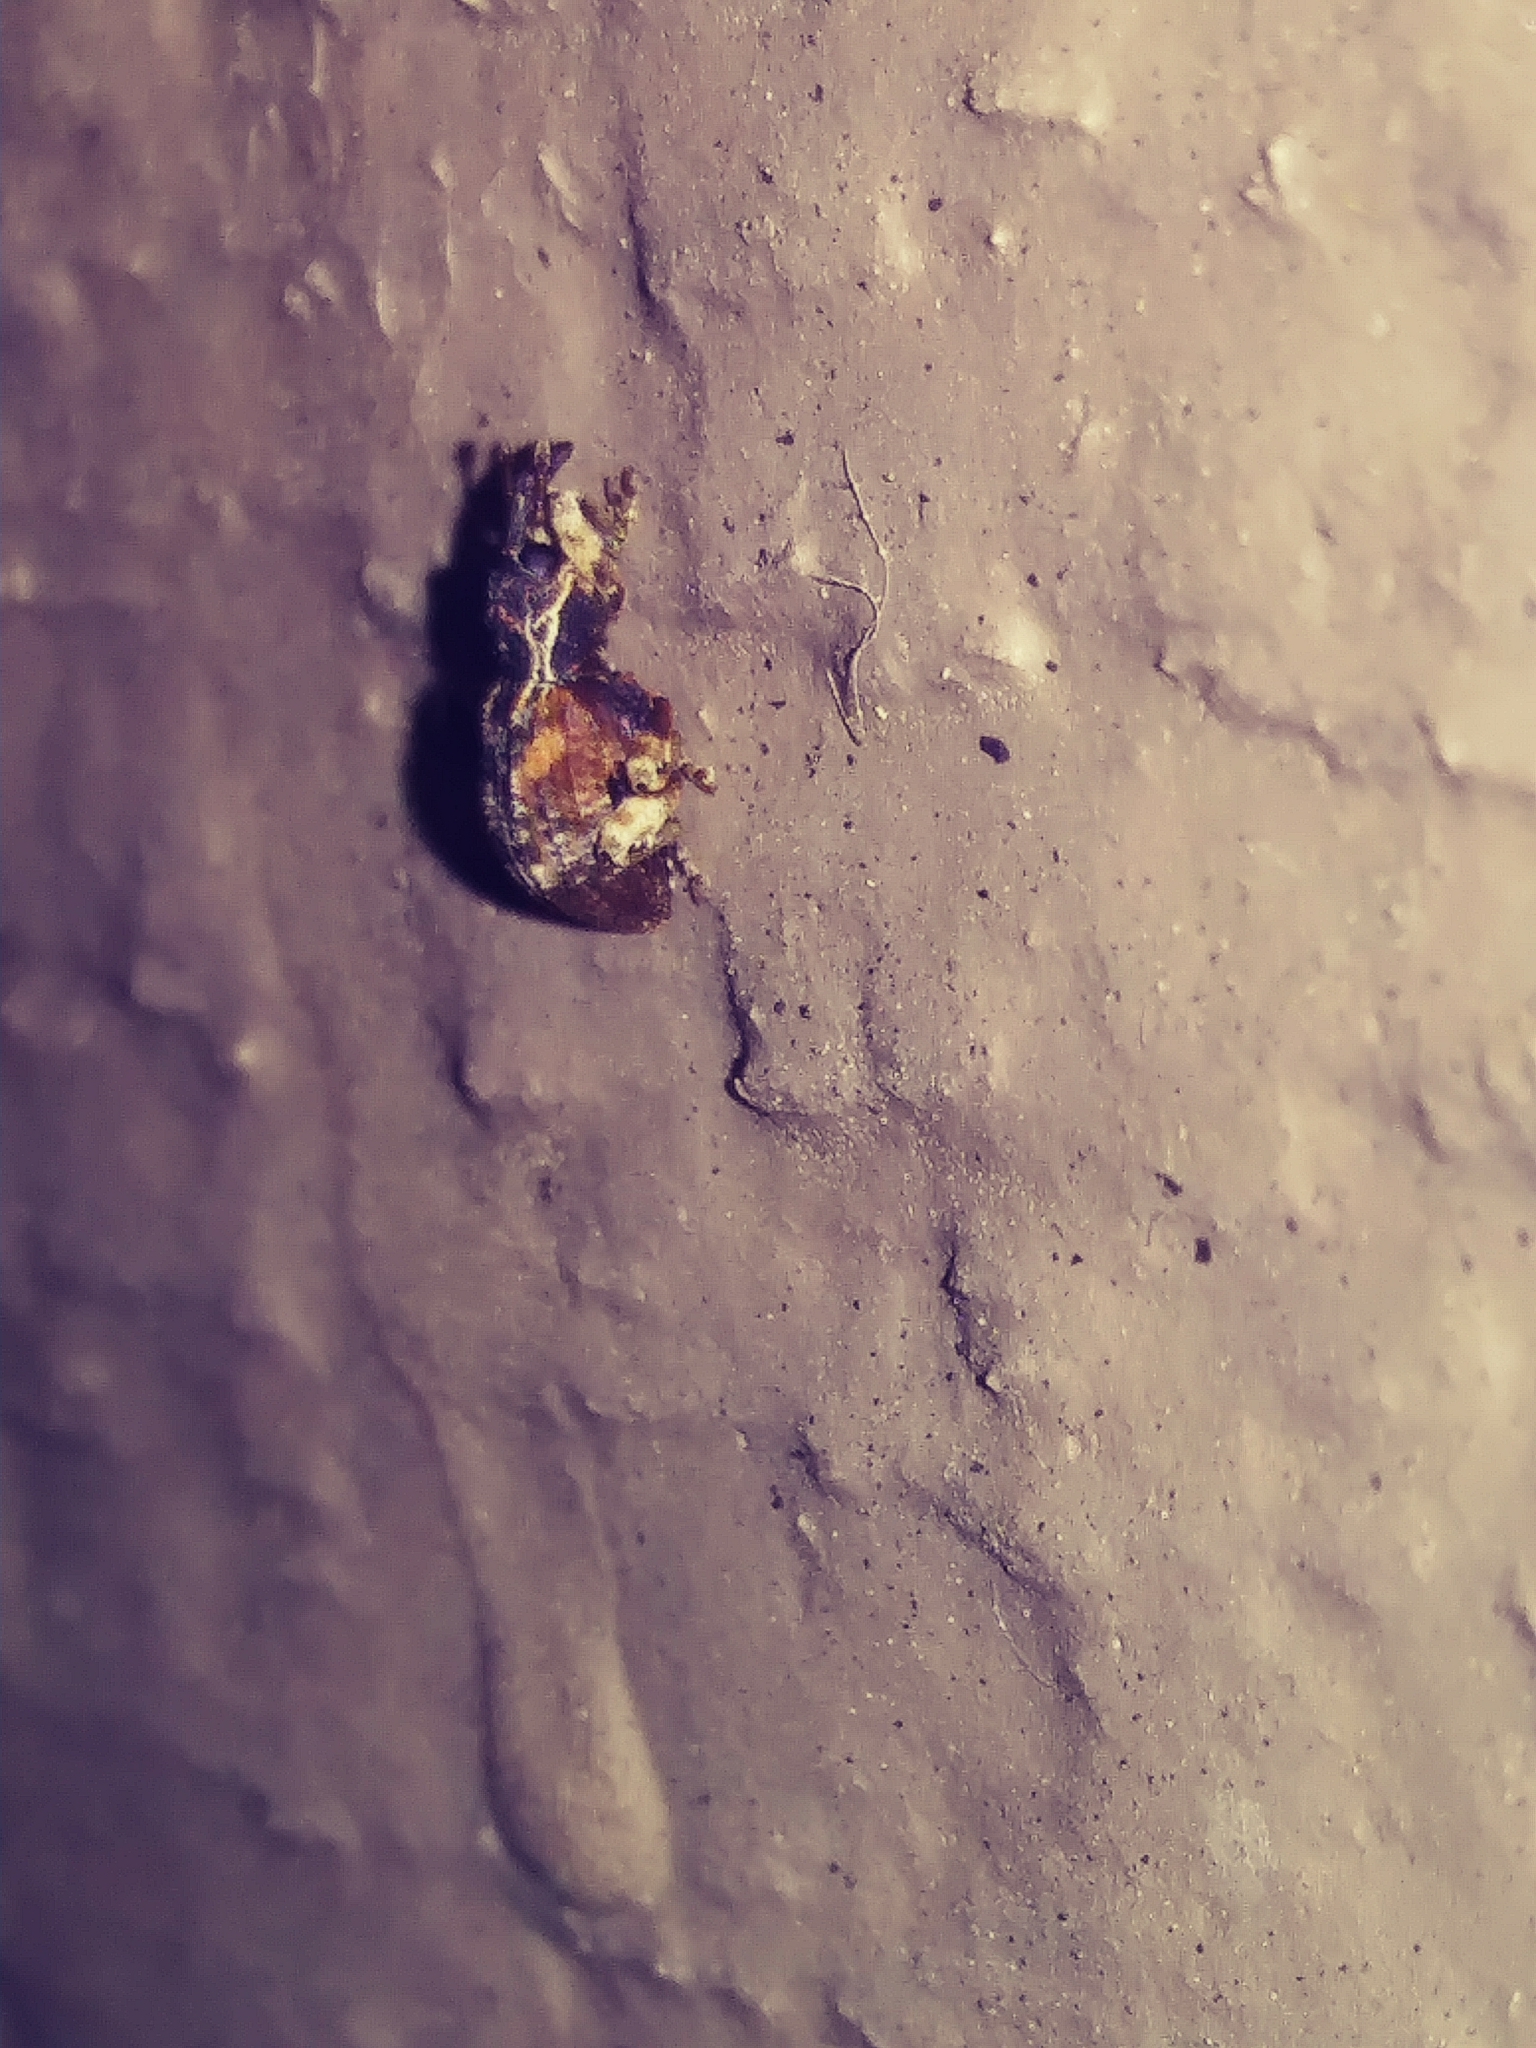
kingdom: Animalia
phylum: Arthropoda
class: Insecta
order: Coleoptera
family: Curculionidae
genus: Conotrachelus
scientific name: Conotrachelus anaglypticus
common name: Cambium curculio
